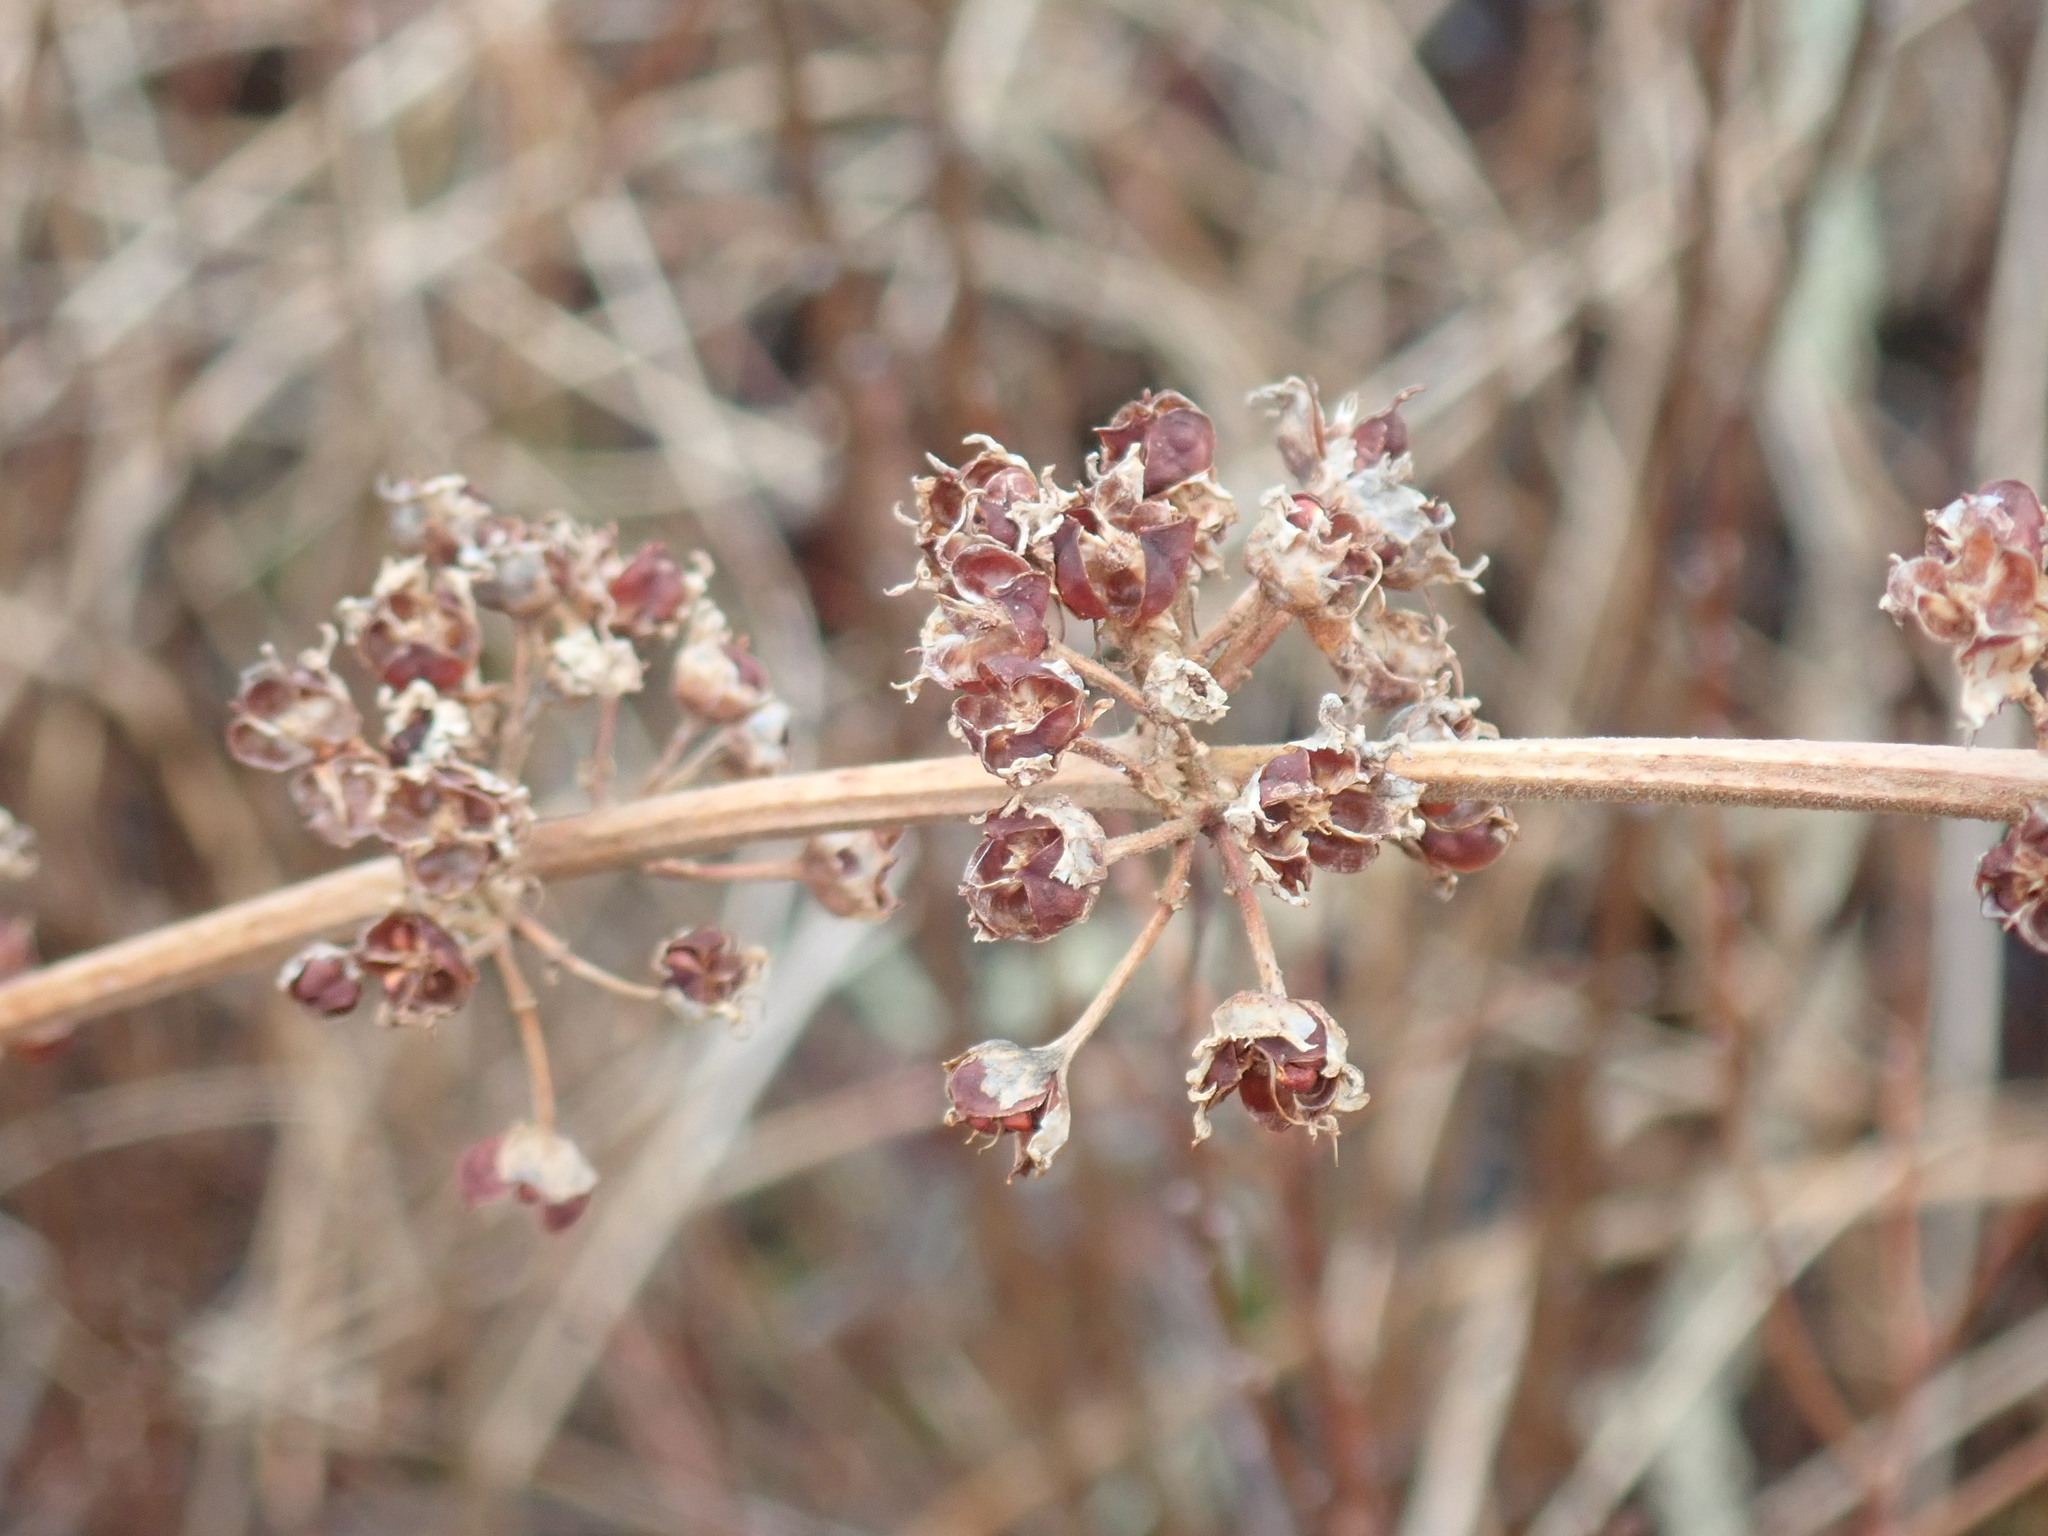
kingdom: Plantae
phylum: Tracheophyta
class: Magnoliopsida
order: Myrtales
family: Lythraceae
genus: Decodon
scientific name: Decodon verticillatus
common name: Hairy swamp loosestrife
